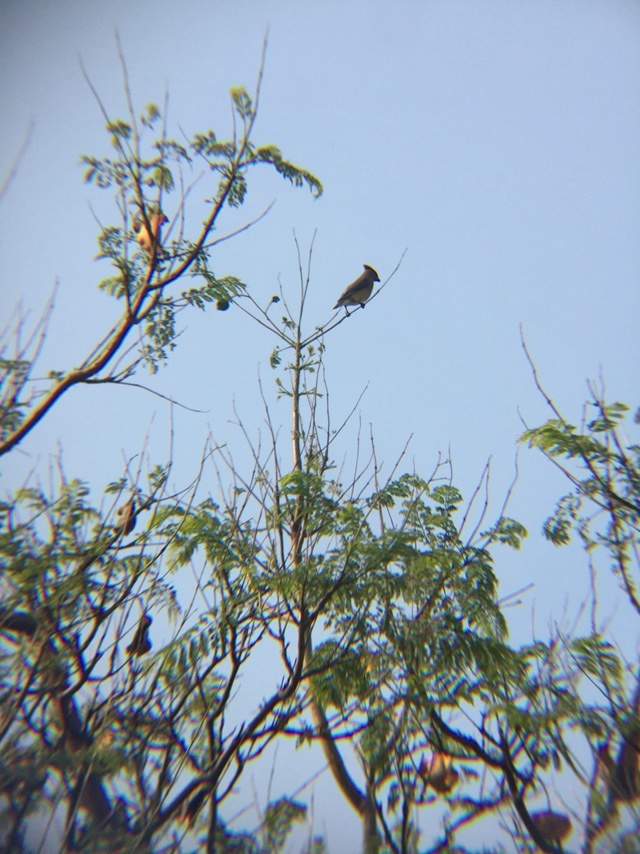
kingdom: Animalia
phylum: Chordata
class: Aves
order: Passeriformes
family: Bombycillidae
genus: Bombycilla
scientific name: Bombycilla cedrorum
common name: Cedar waxwing
